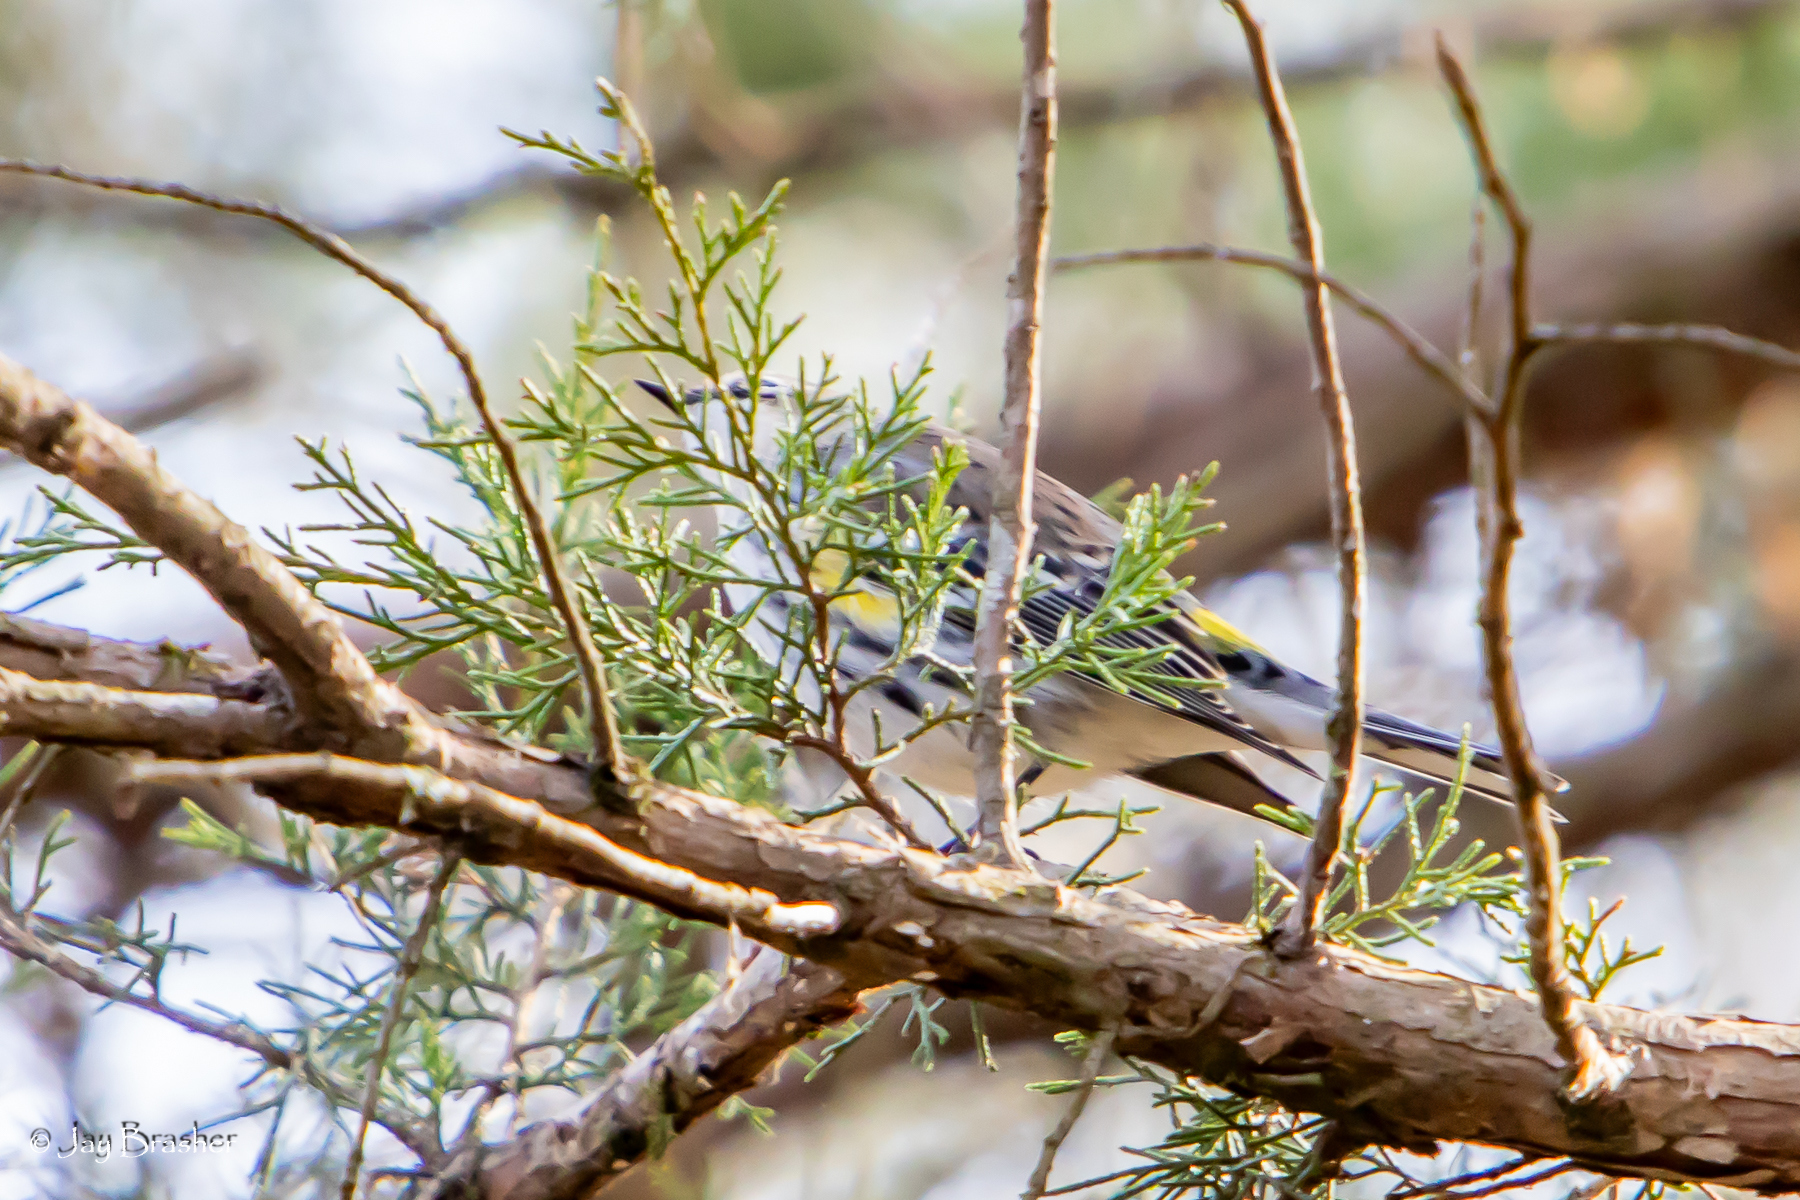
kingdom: Animalia
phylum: Chordata
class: Aves
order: Passeriformes
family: Parulidae
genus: Setophaga
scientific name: Setophaga coronata
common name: Myrtle warbler
